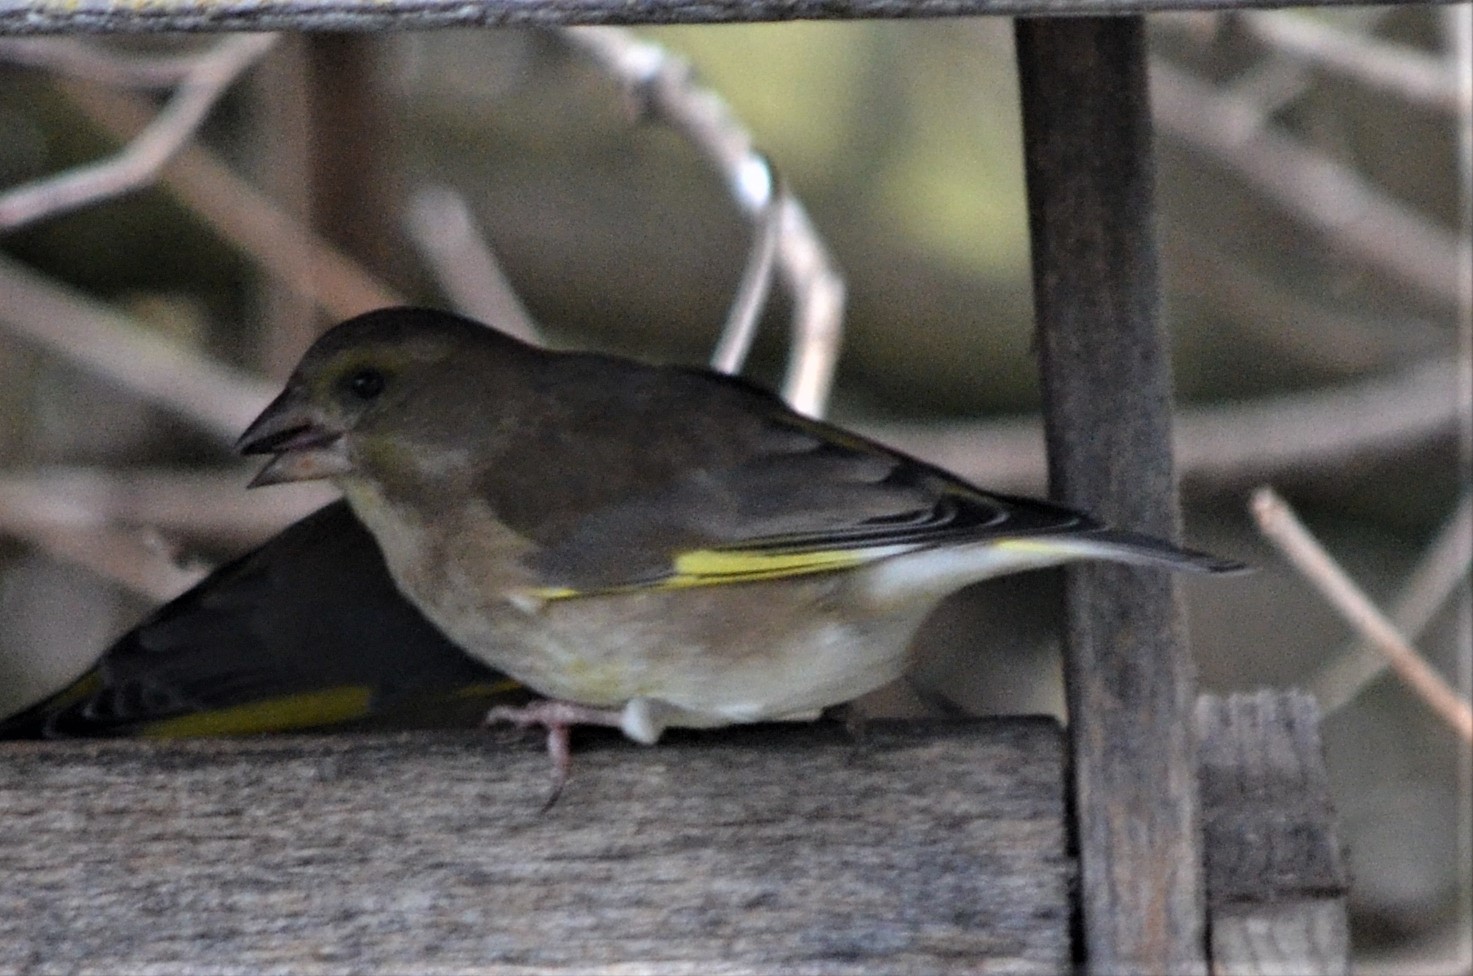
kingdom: Plantae
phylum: Tracheophyta
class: Liliopsida
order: Poales
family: Poaceae
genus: Chloris
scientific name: Chloris chloris
